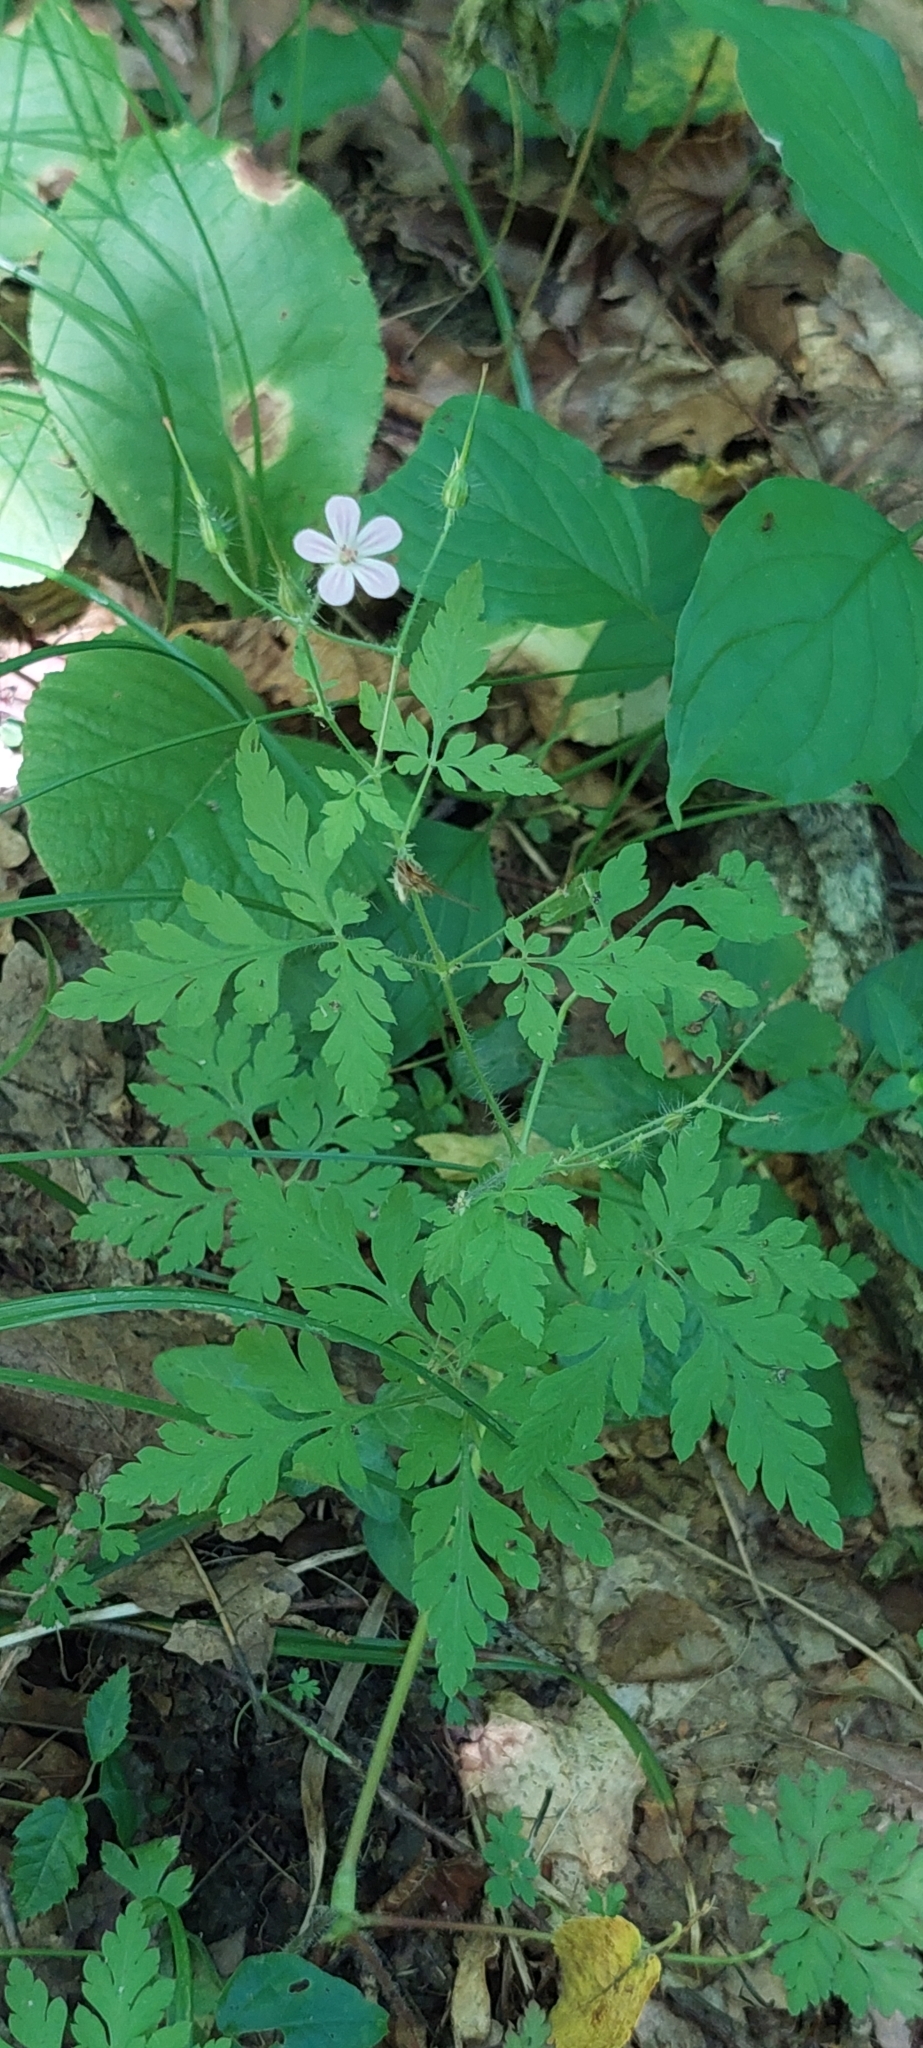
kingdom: Plantae
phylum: Tracheophyta
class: Magnoliopsida
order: Geraniales
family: Geraniaceae
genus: Geranium
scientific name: Geranium robertianum
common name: Herb-robert
